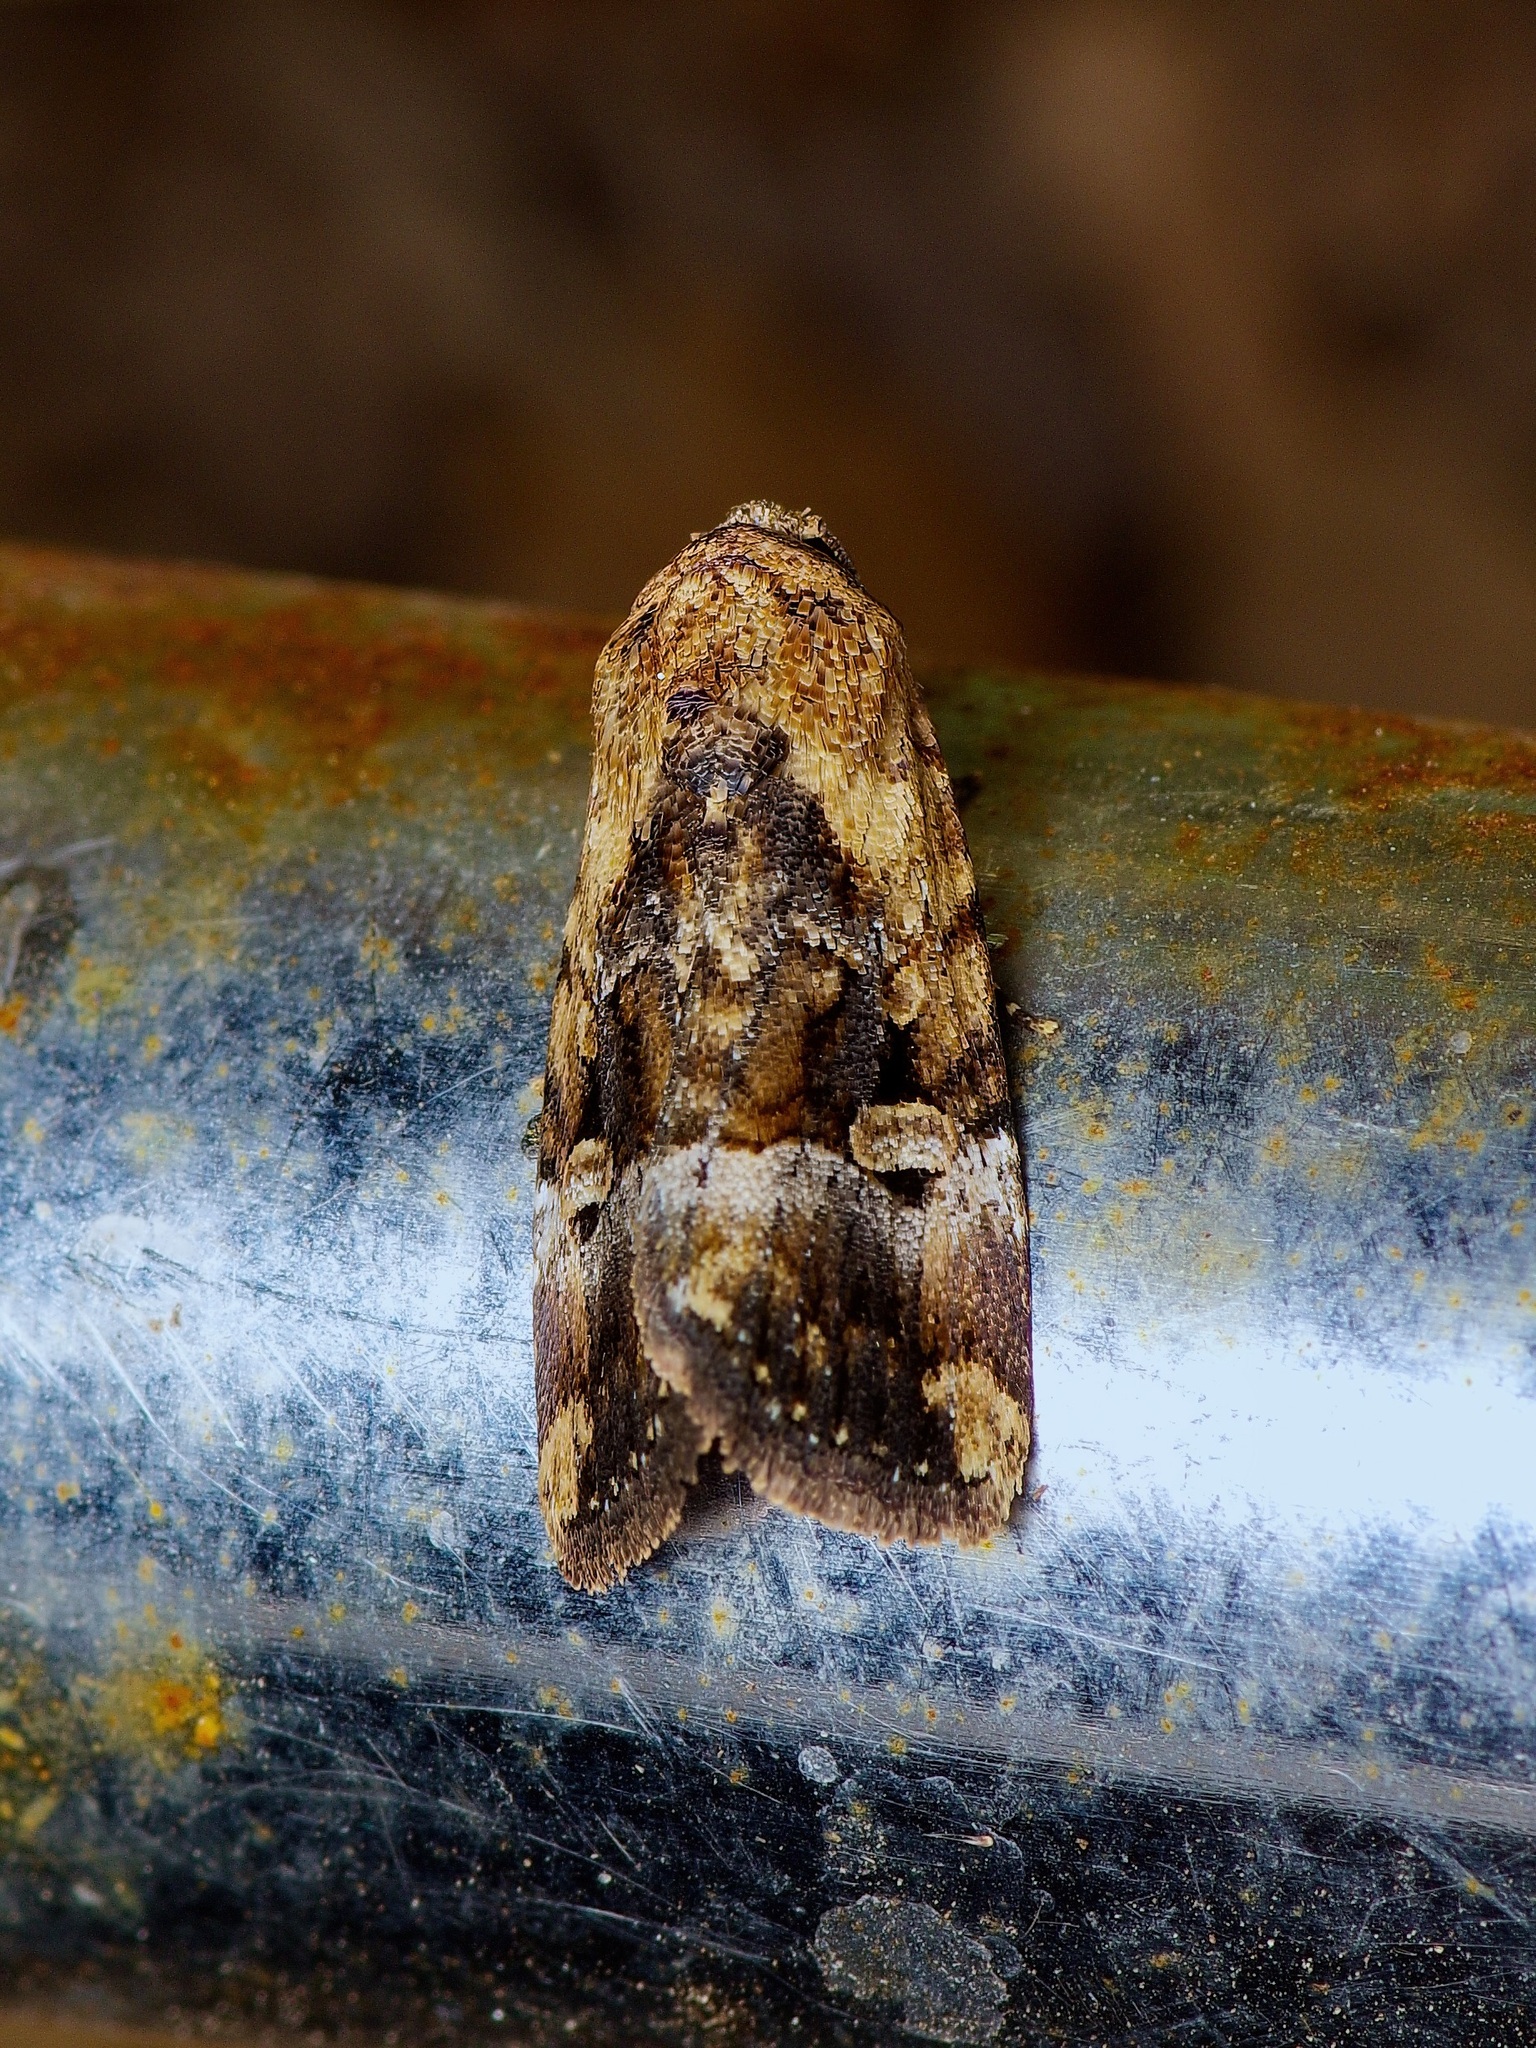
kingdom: Animalia
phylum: Arthropoda
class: Insecta
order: Lepidoptera
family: Noctuidae
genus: Elaphria
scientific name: Elaphria chalcedonia
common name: Chalcedony midget
